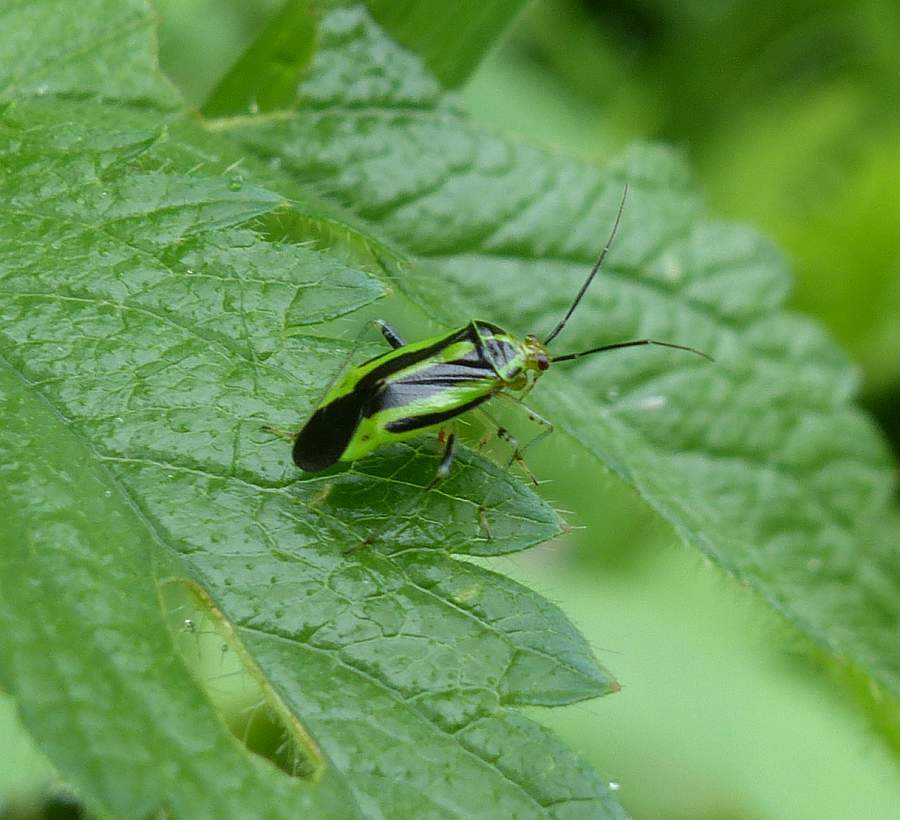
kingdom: Animalia
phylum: Arthropoda
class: Insecta
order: Hemiptera
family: Miridae
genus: Poecilocapsus
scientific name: Poecilocapsus lineatus
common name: Four-lined plant bug
